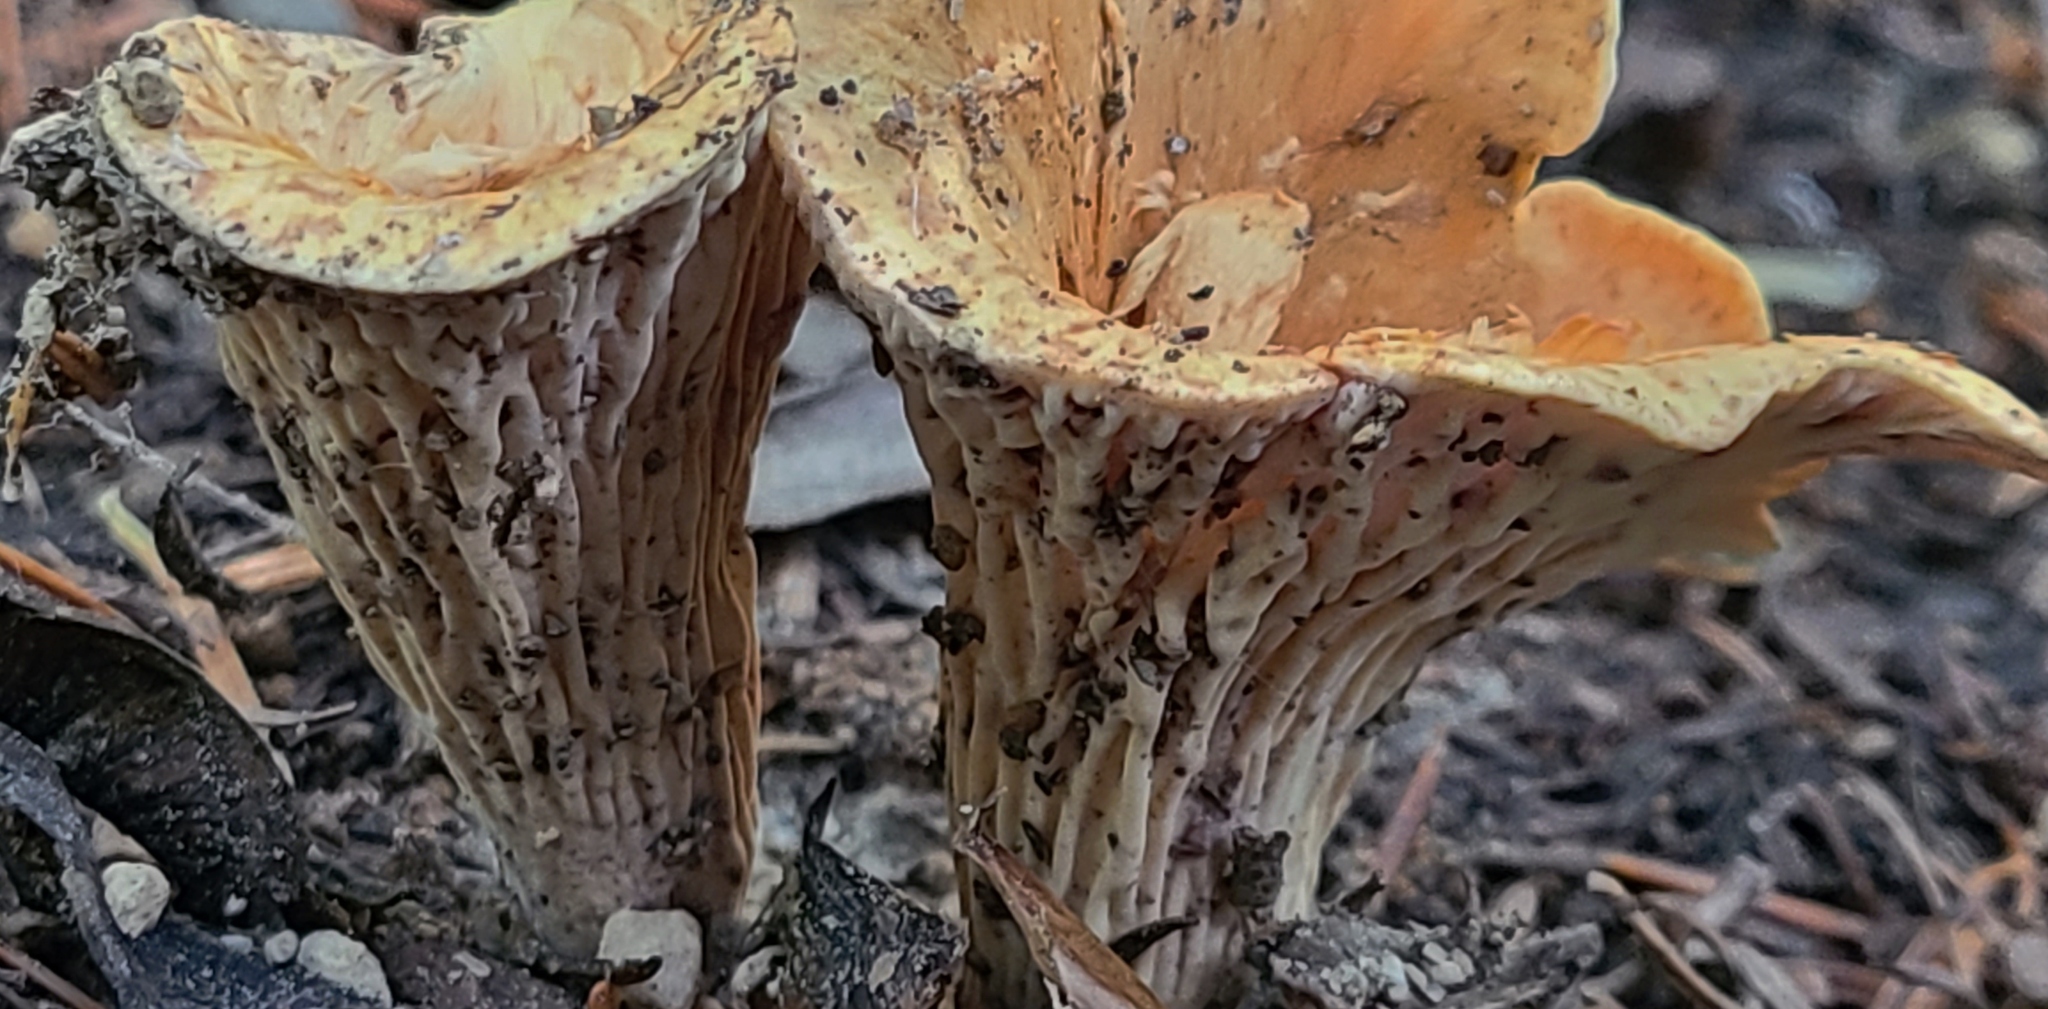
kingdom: Fungi
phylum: Basidiomycota
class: Agaricomycetes
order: Gomphales
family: Gomphaceae
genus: Turbinellus
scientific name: Turbinellus floccosus
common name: Scaly chanterelle
